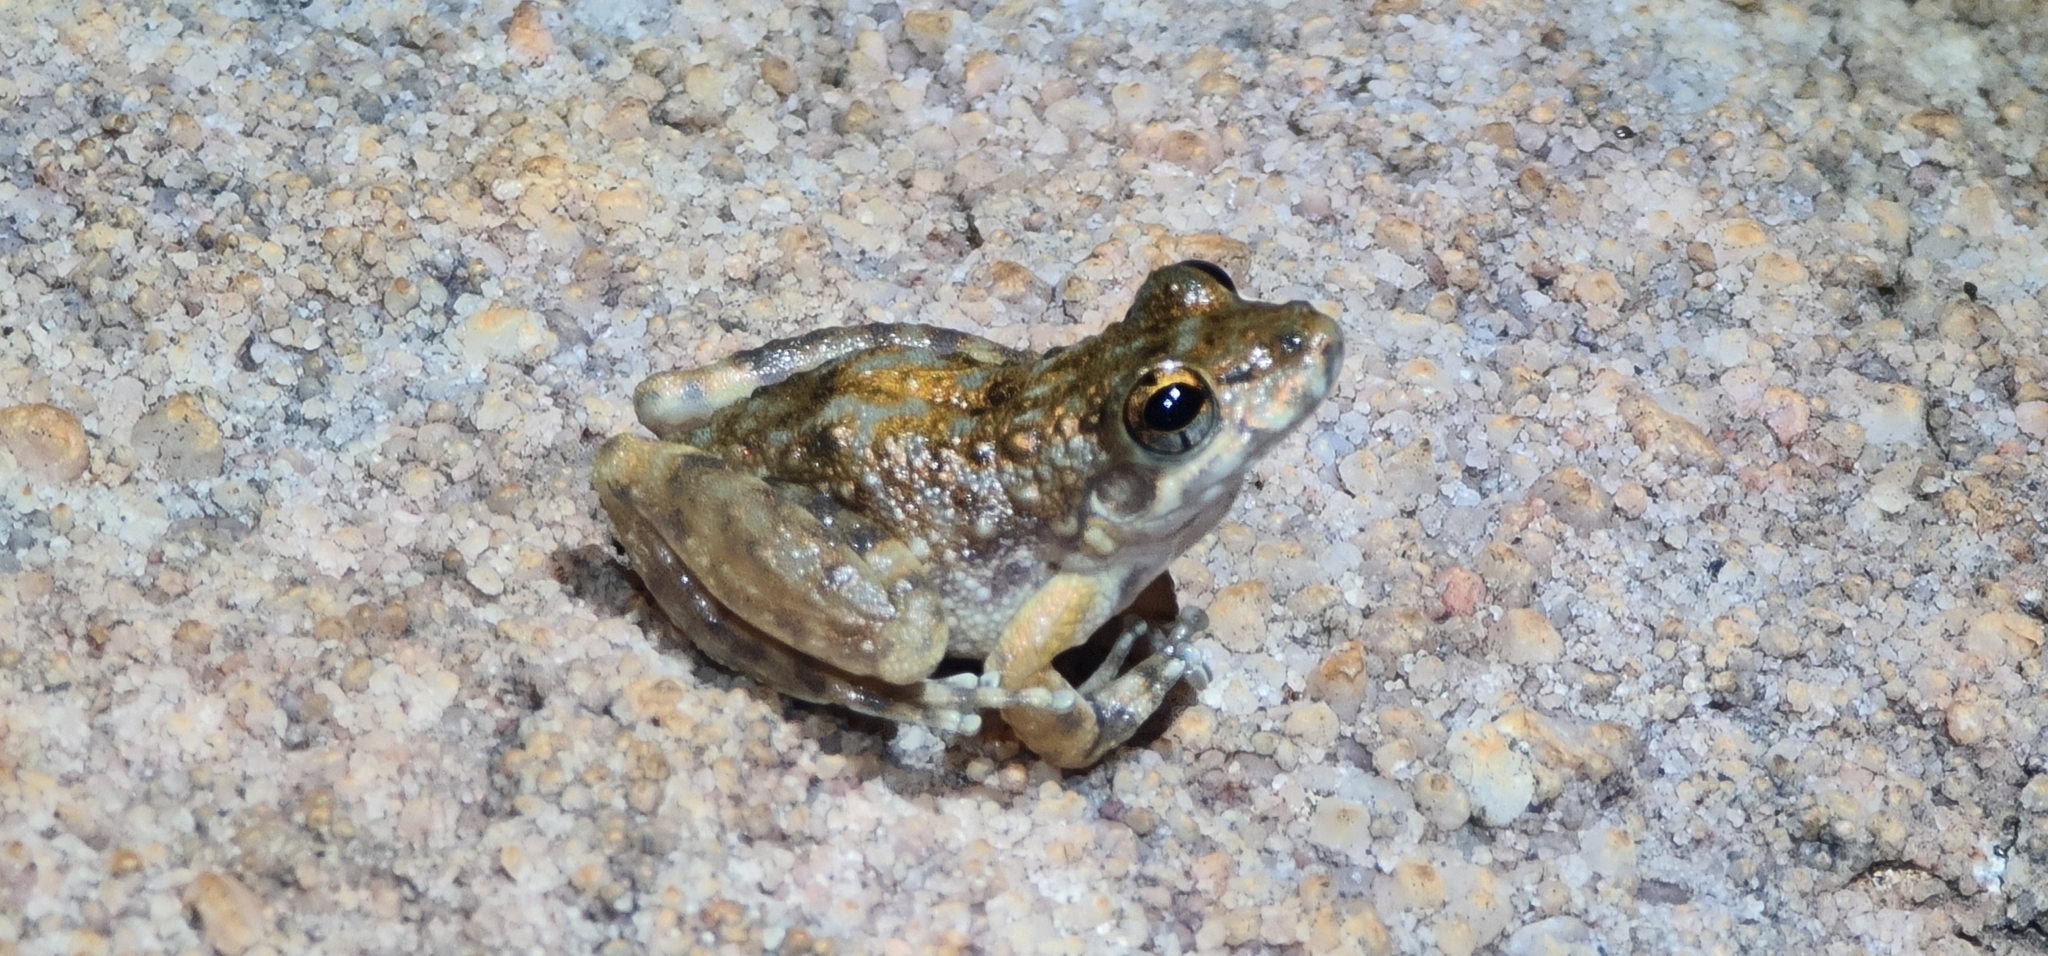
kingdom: Animalia
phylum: Chordata
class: Amphibia
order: Anura
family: Pelodryadidae
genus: Litoria
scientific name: Litoria meiriana
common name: Rockhole frog
